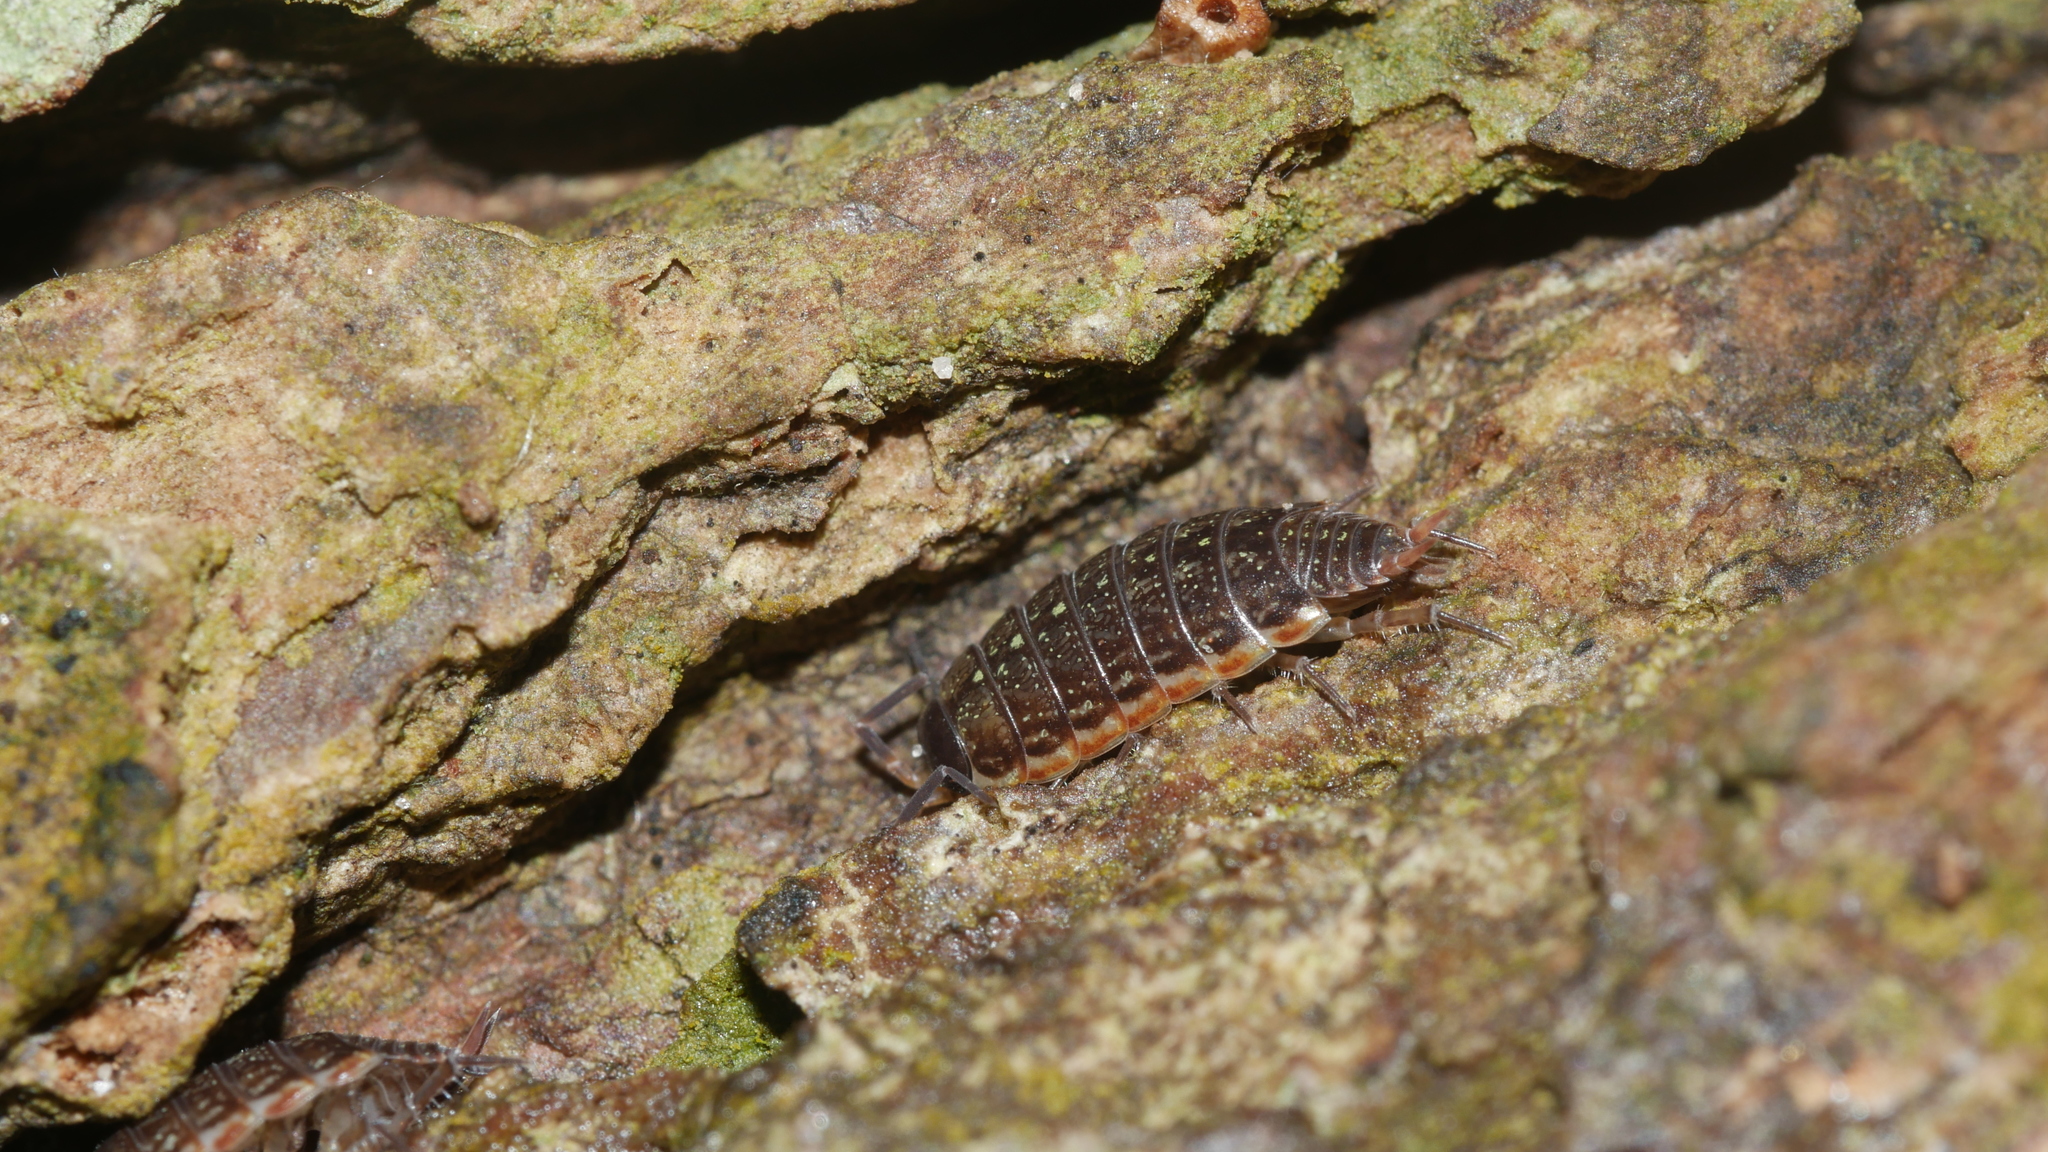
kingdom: Animalia
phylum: Arthropoda
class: Malacostraca
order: Isopoda
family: Philosciidae
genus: Philoscia
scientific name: Philoscia muscorum
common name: Common striped woodlouse
